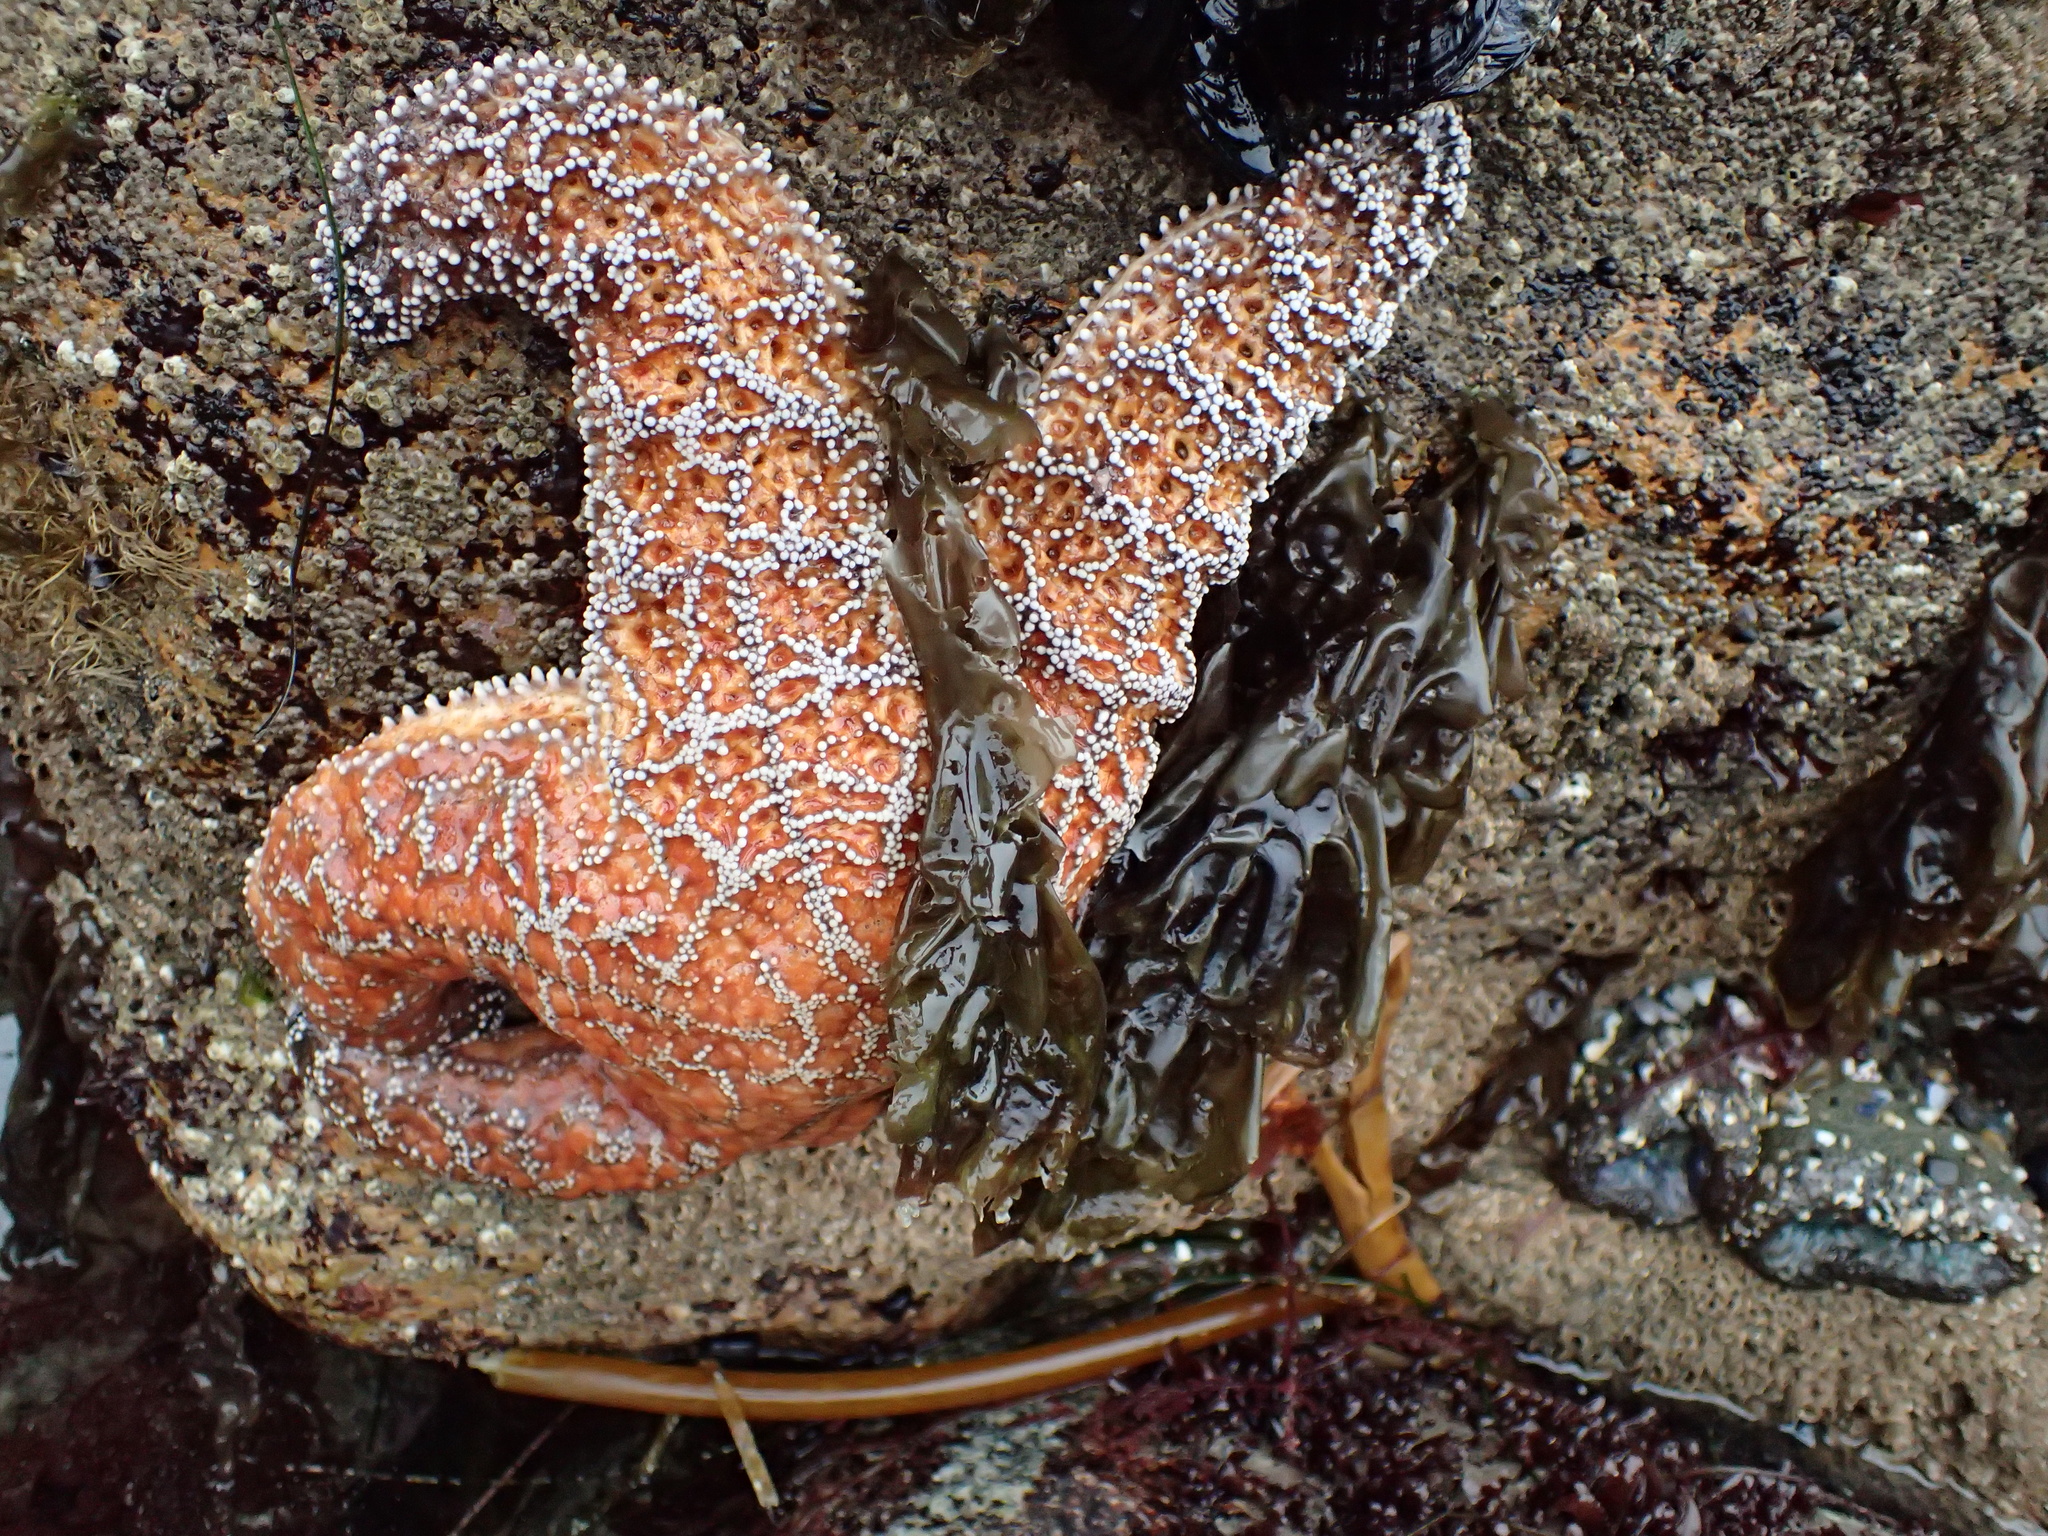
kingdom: Animalia
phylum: Echinodermata
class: Asteroidea
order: Forcipulatida
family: Asteriidae
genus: Pisaster
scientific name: Pisaster ochraceus
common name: Ochre stars
